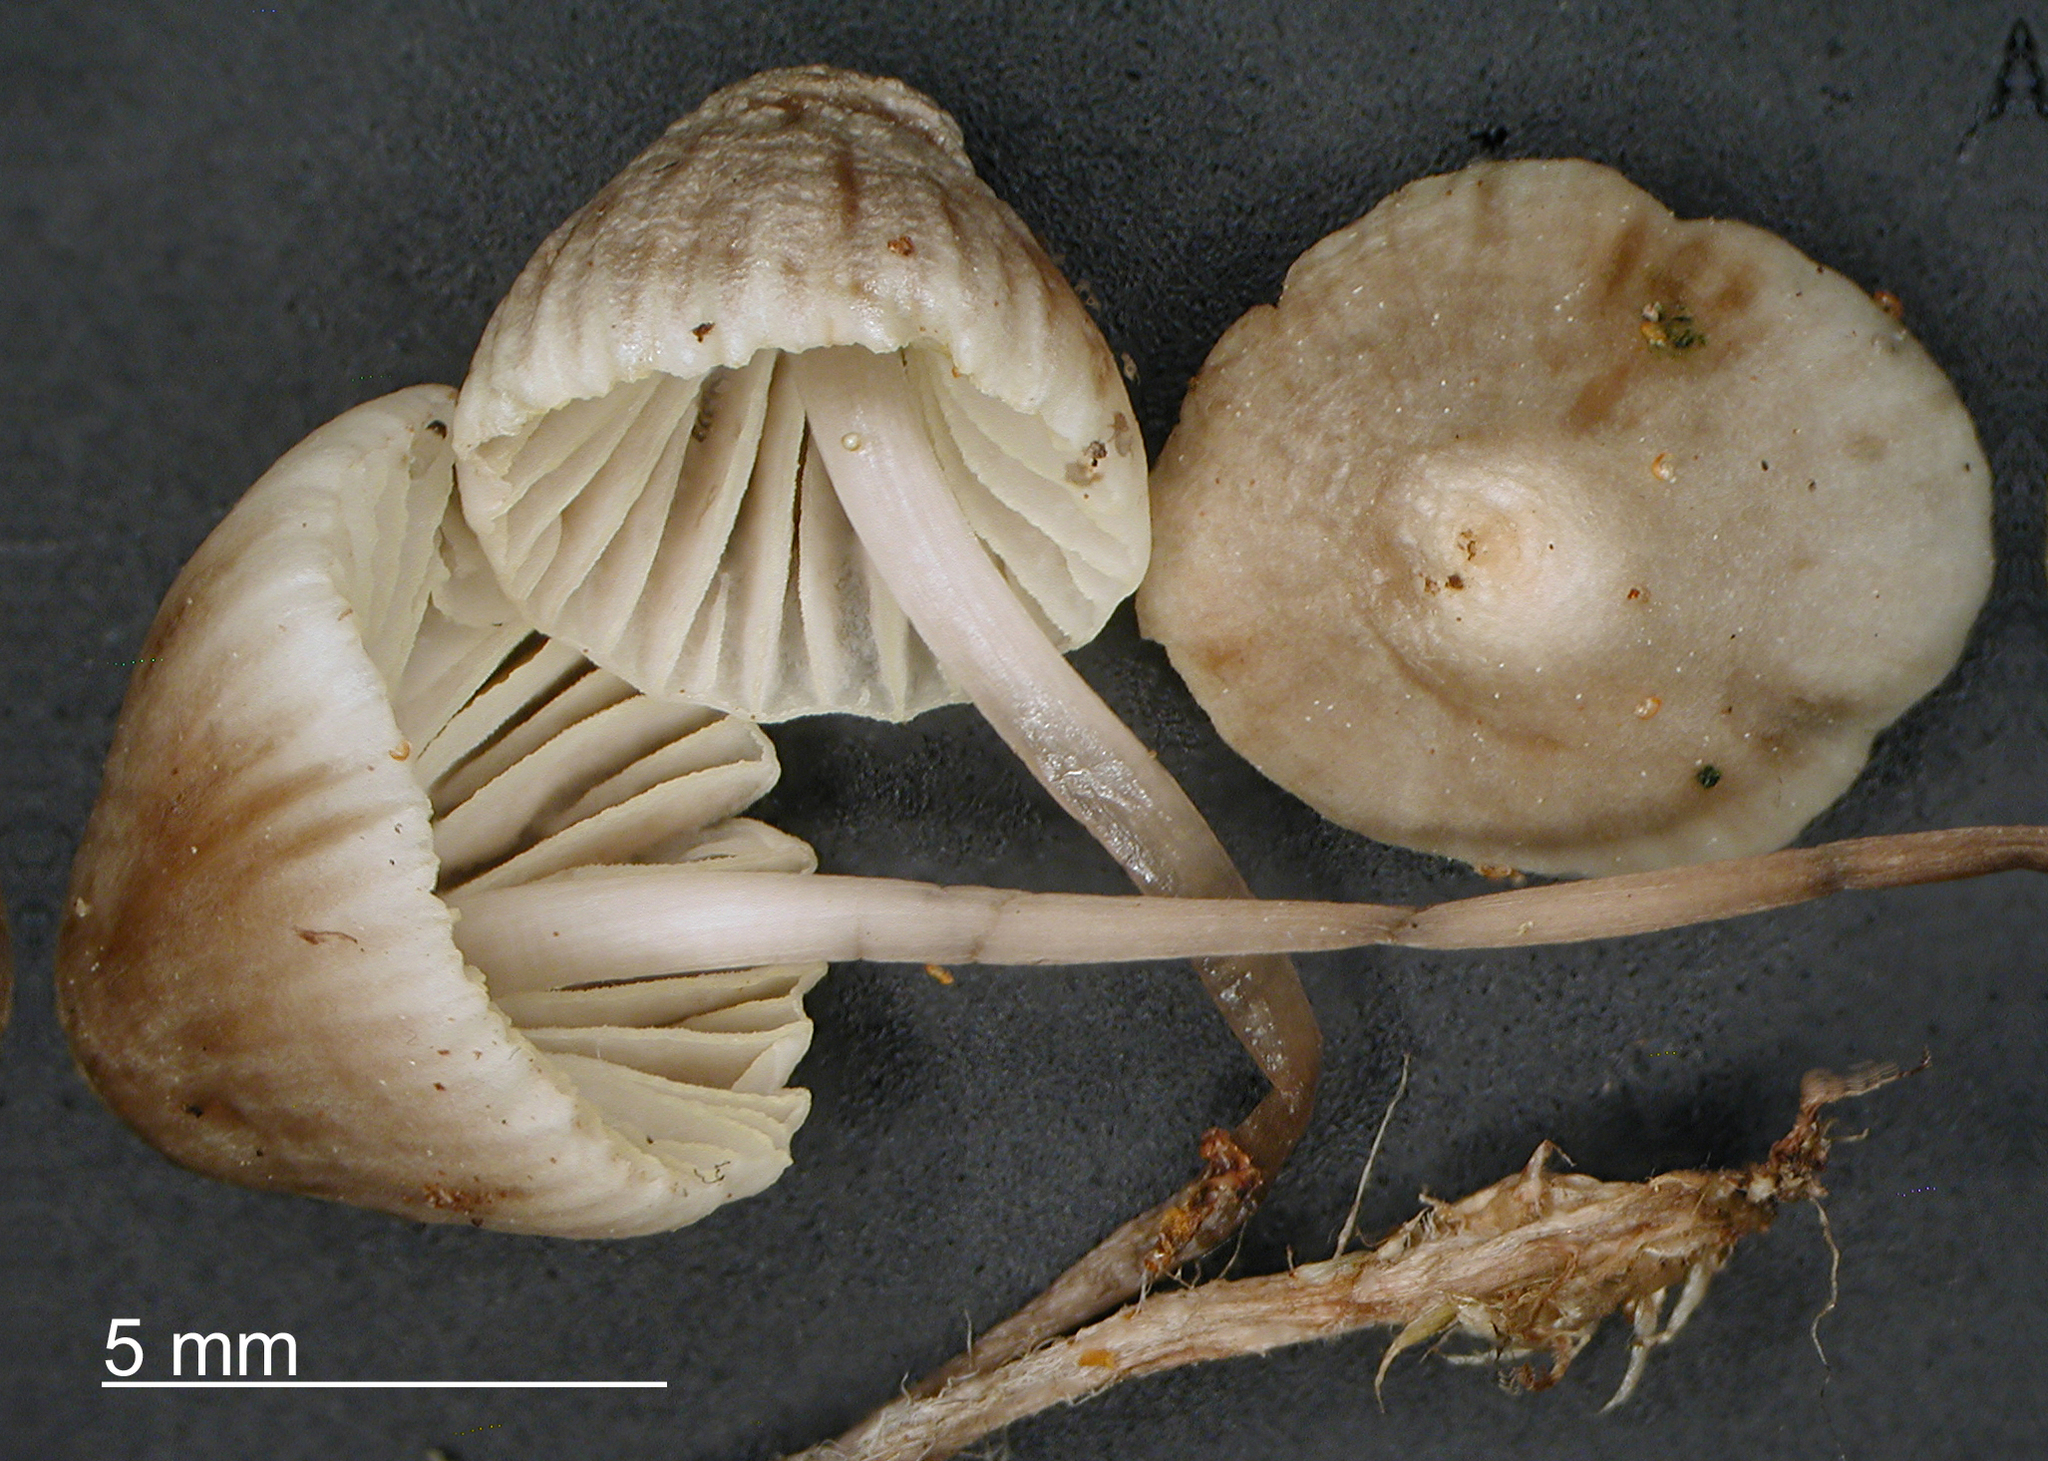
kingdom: Fungi
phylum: Basidiomycota
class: Agaricomycetes
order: Agaricales
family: Mycenaceae
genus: Mycena
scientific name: Mycena austrofilopes
